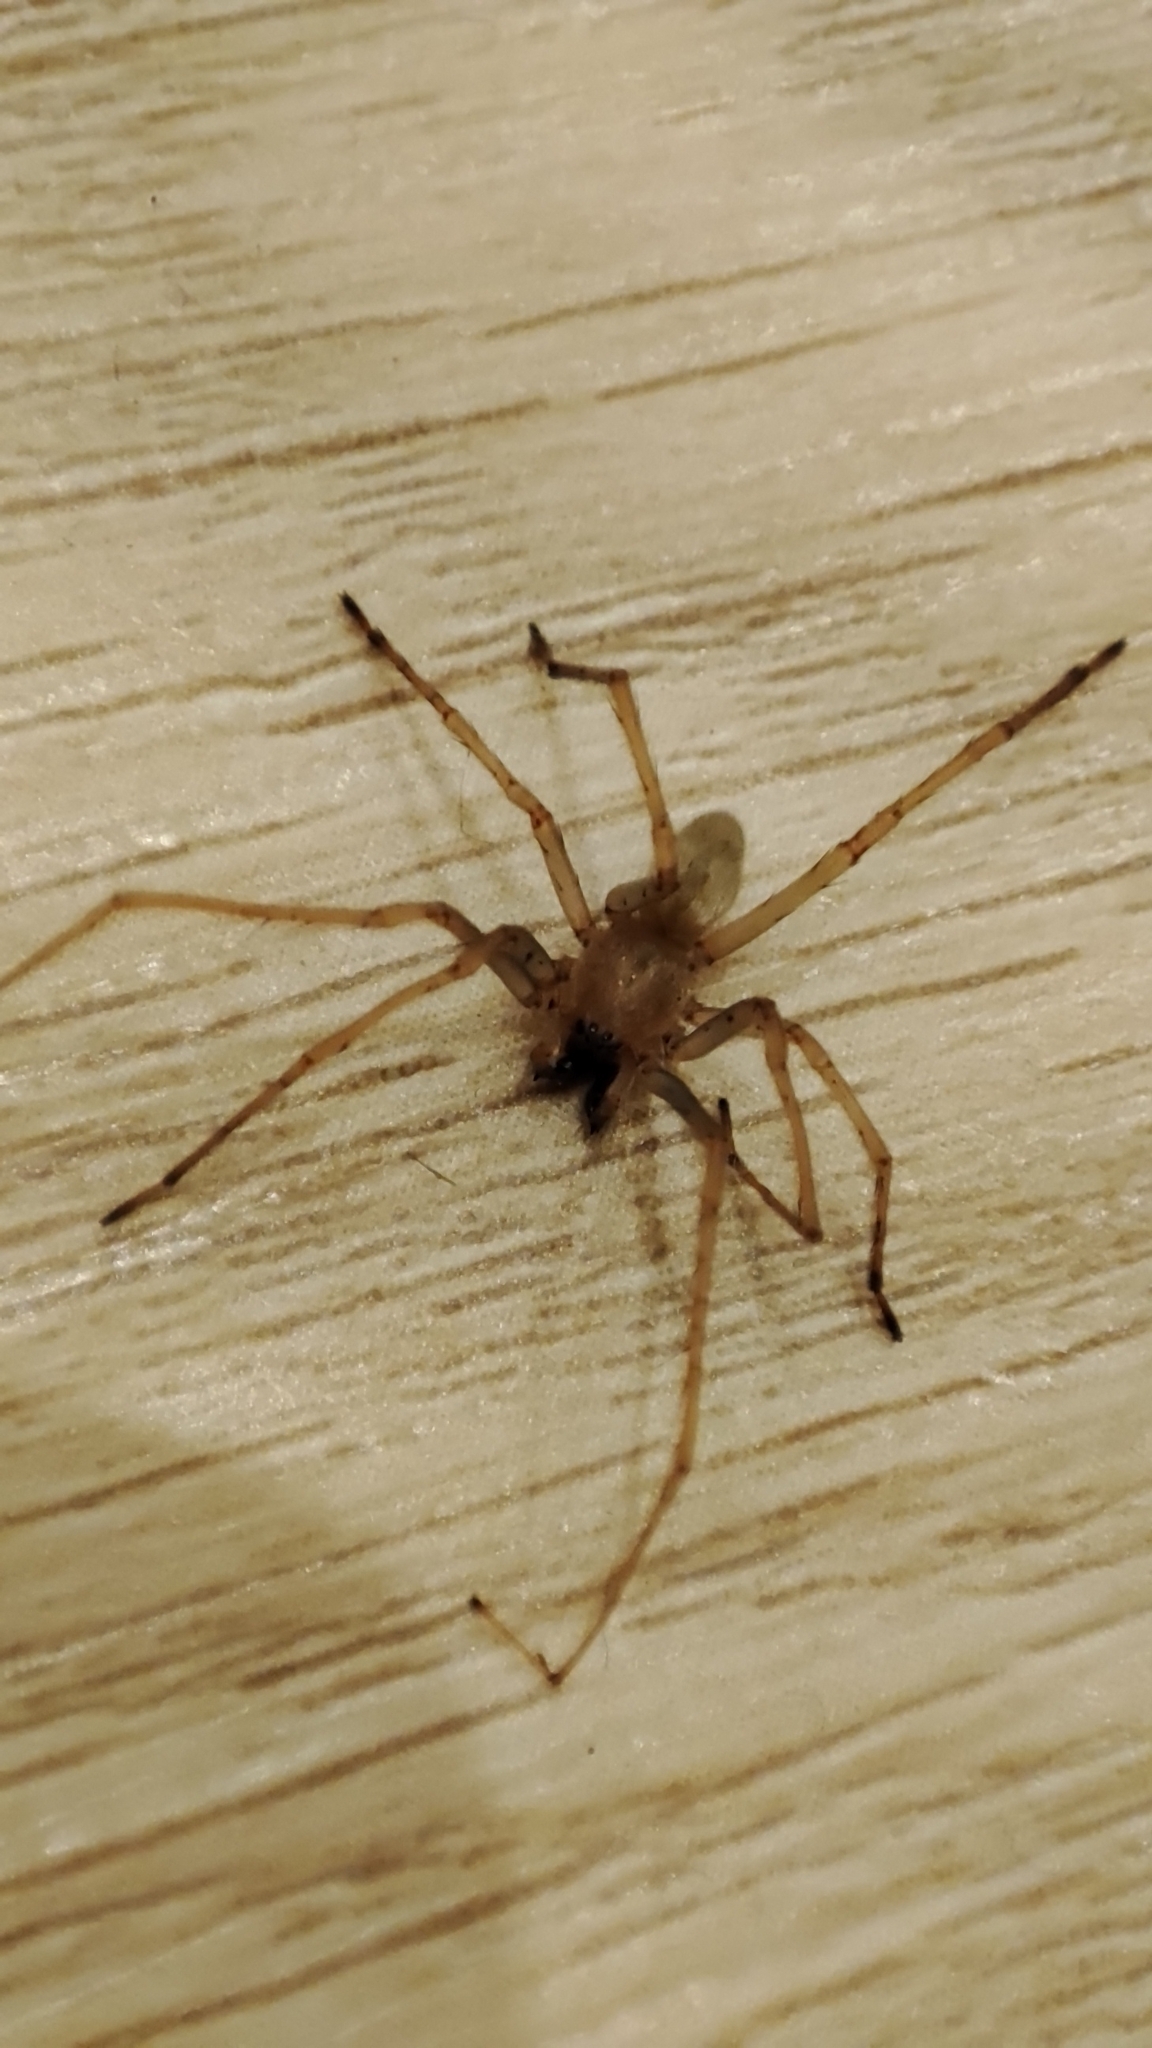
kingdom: Animalia
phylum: Arthropoda
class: Arachnida
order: Araneae
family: Cheiracanthiidae
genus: Cheiracanthium
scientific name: Cheiracanthium mildei
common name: Northern yellow sac spider
